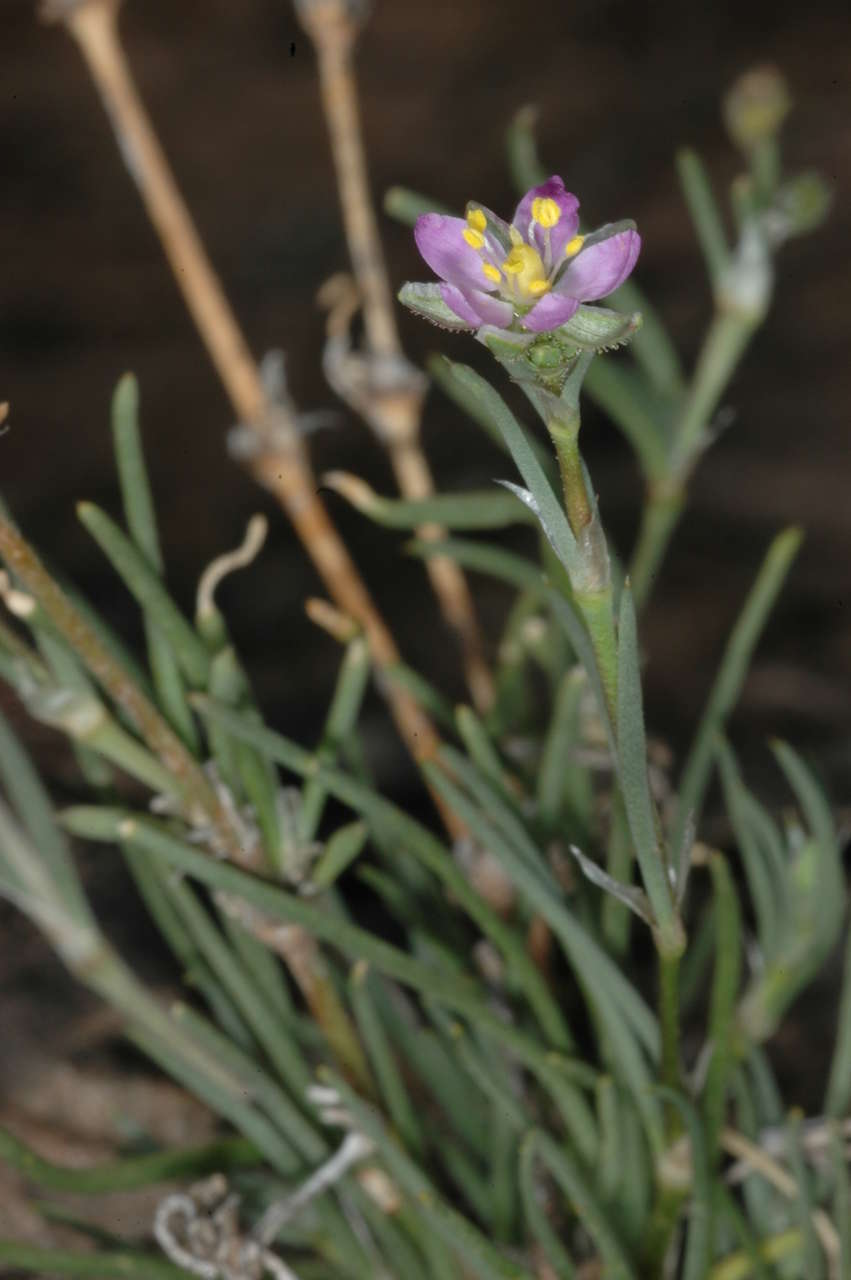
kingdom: Plantae
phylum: Tracheophyta
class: Magnoliopsida
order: Caryophyllales
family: Caryophyllaceae
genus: Spergularia
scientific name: Spergularia rubra
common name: Red sand-spurrey
